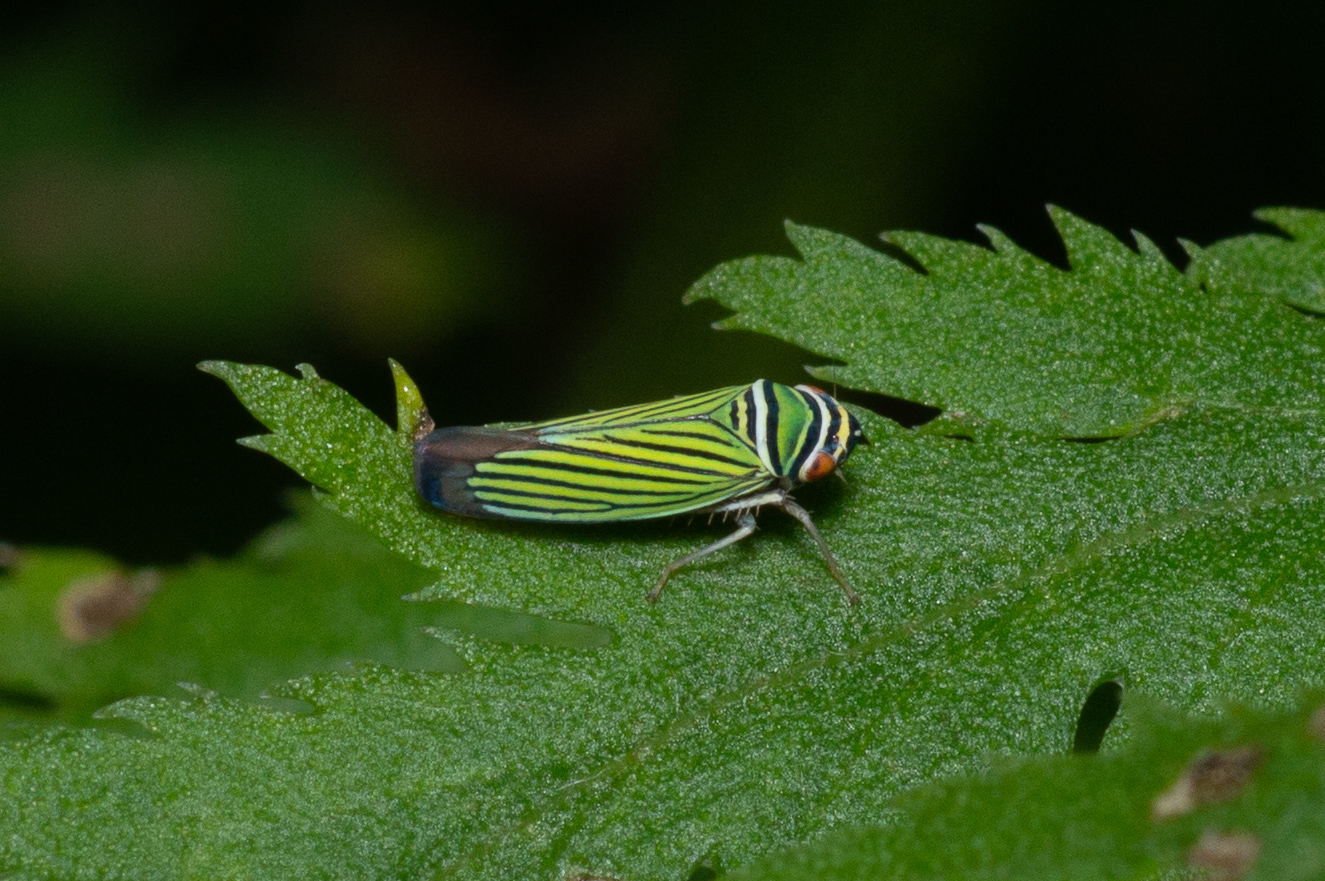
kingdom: Animalia
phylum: Arthropoda
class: Insecta
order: Hemiptera
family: Cicadellidae
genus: Tylozygus
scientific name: Tylozygus bifidus
